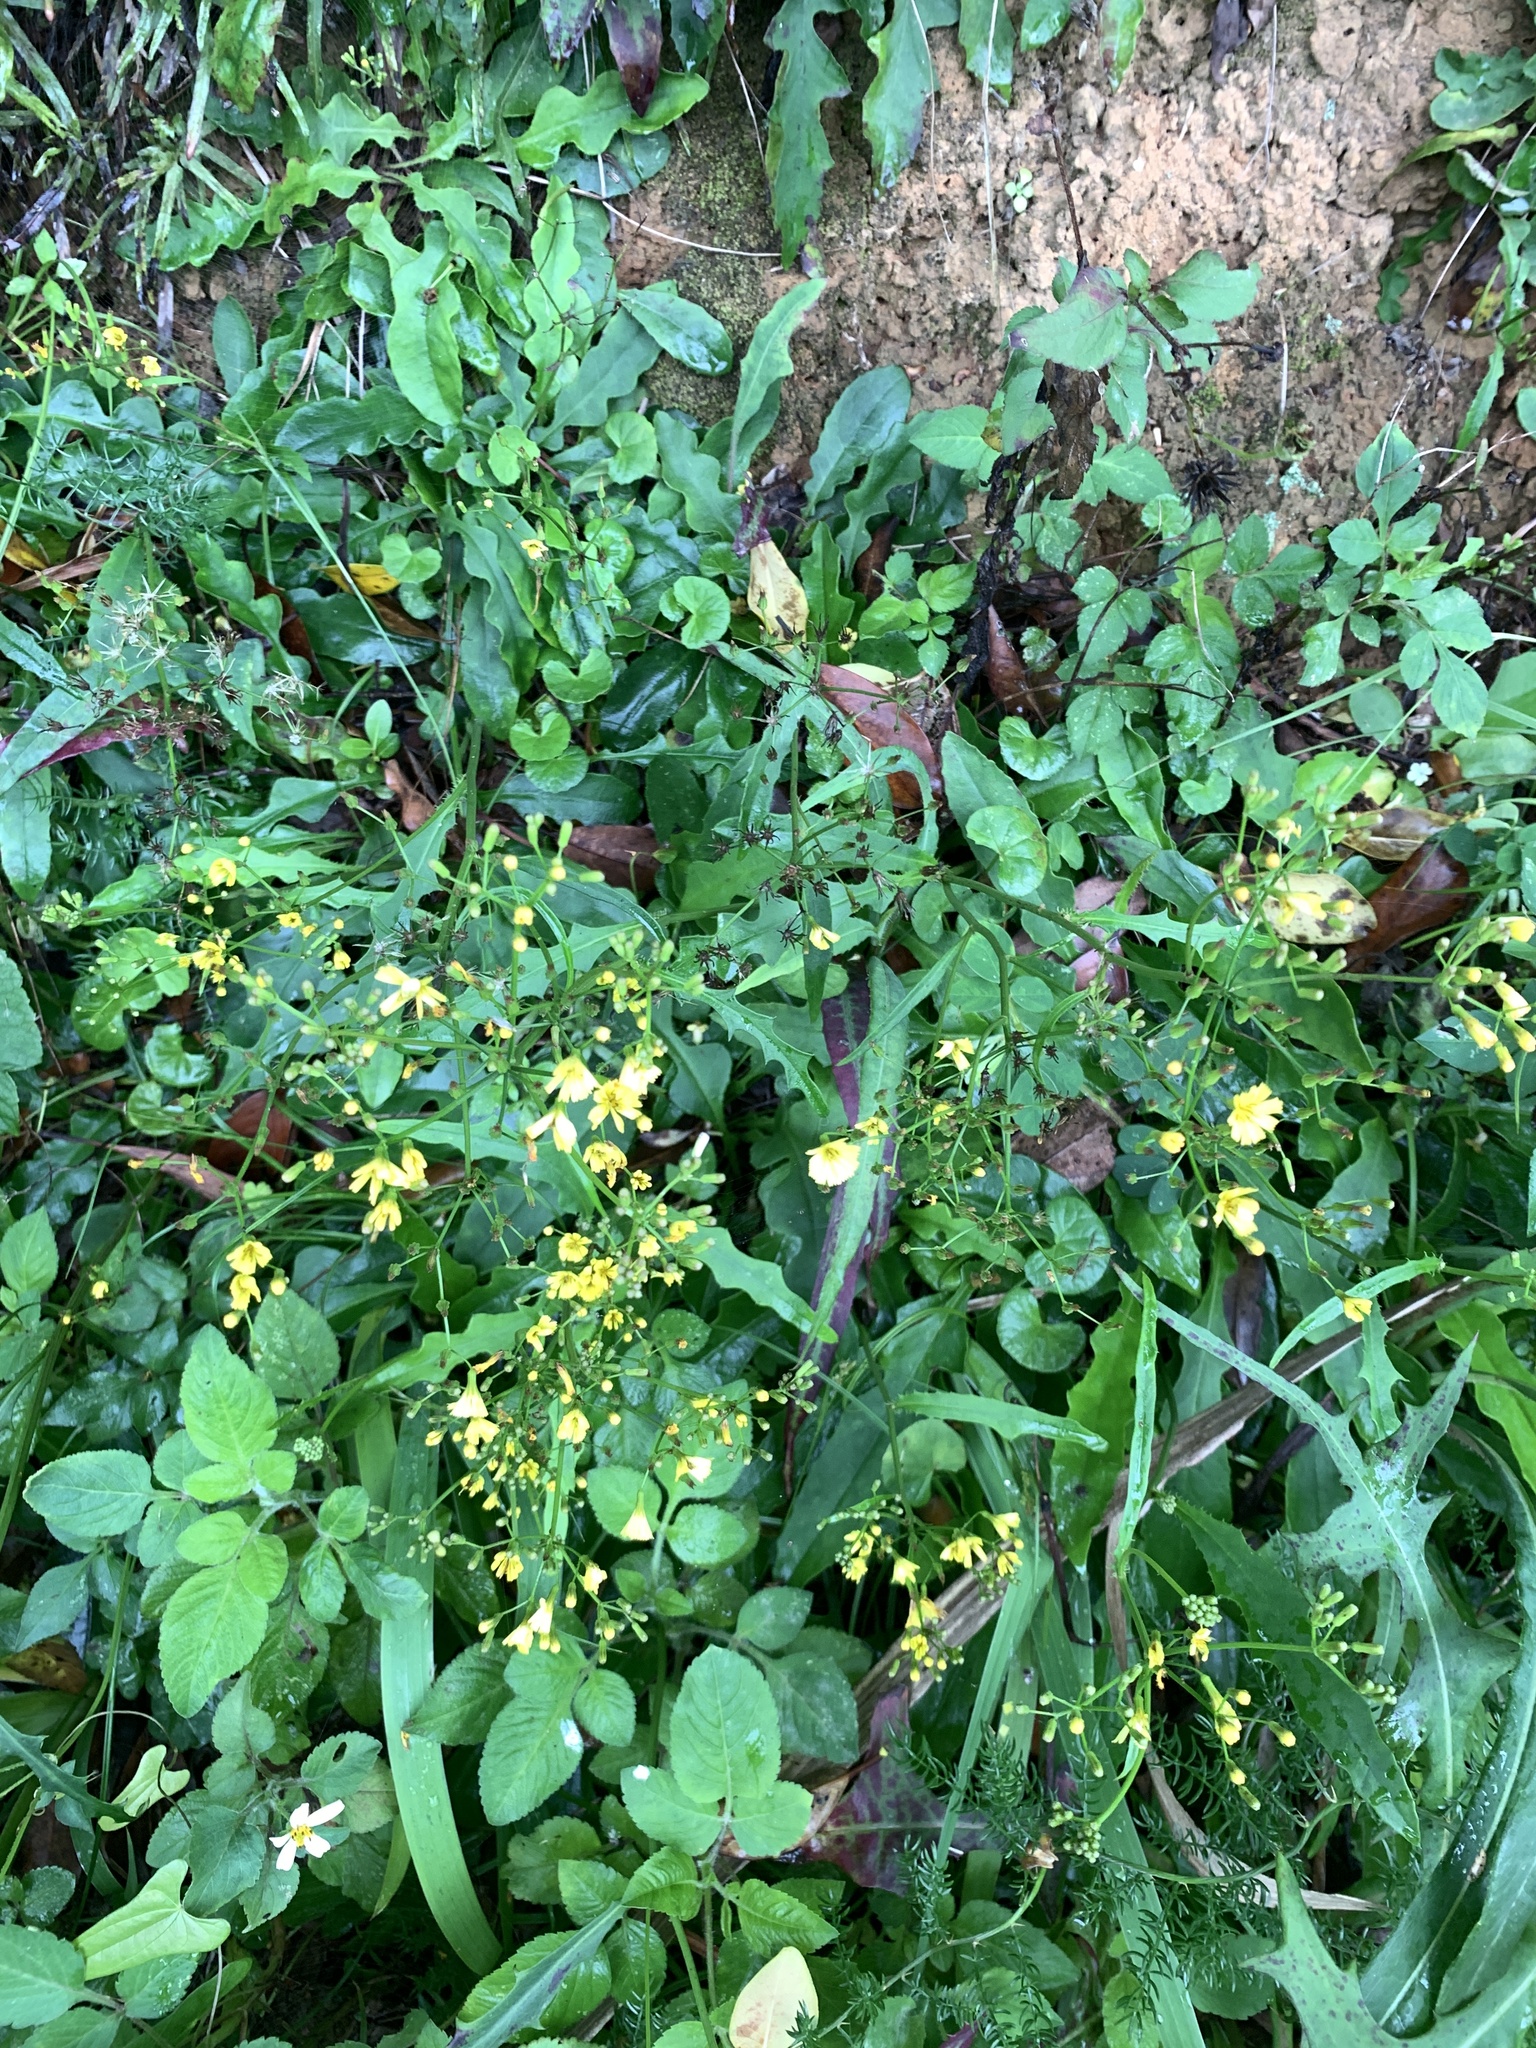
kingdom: Plantae
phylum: Tracheophyta
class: Magnoliopsida
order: Asterales
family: Asteraceae
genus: Ixeridium
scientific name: Ixeridium laevigatum
